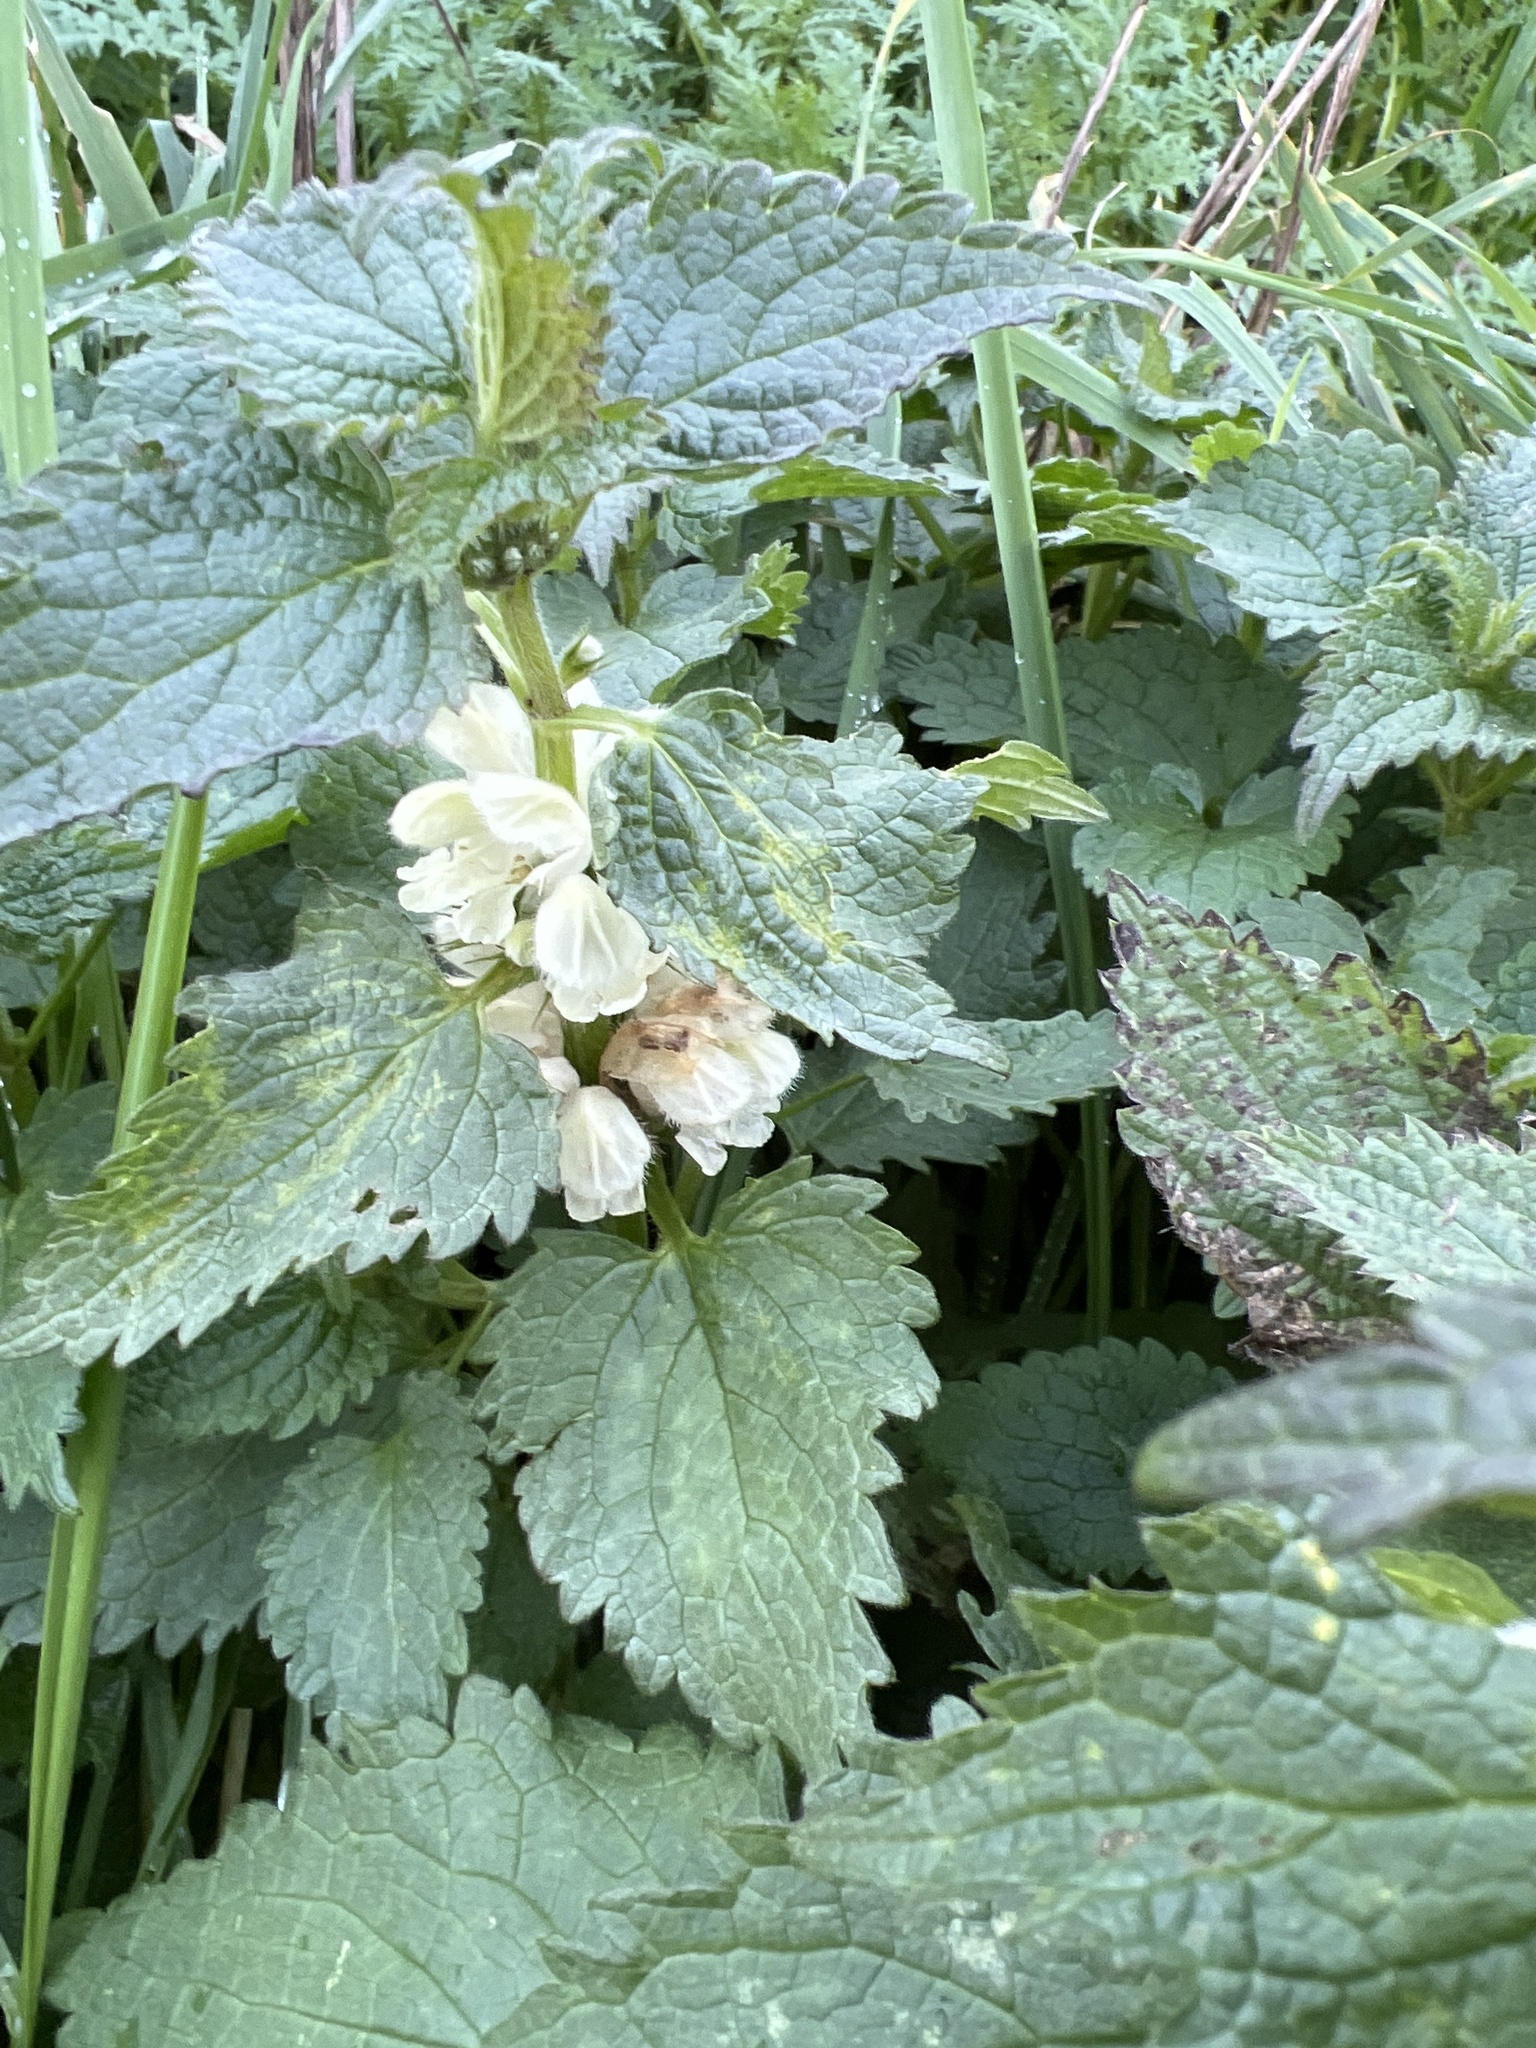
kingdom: Plantae
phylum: Tracheophyta
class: Magnoliopsida
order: Lamiales
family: Lamiaceae
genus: Lamium
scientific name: Lamium album
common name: White dead-nettle
